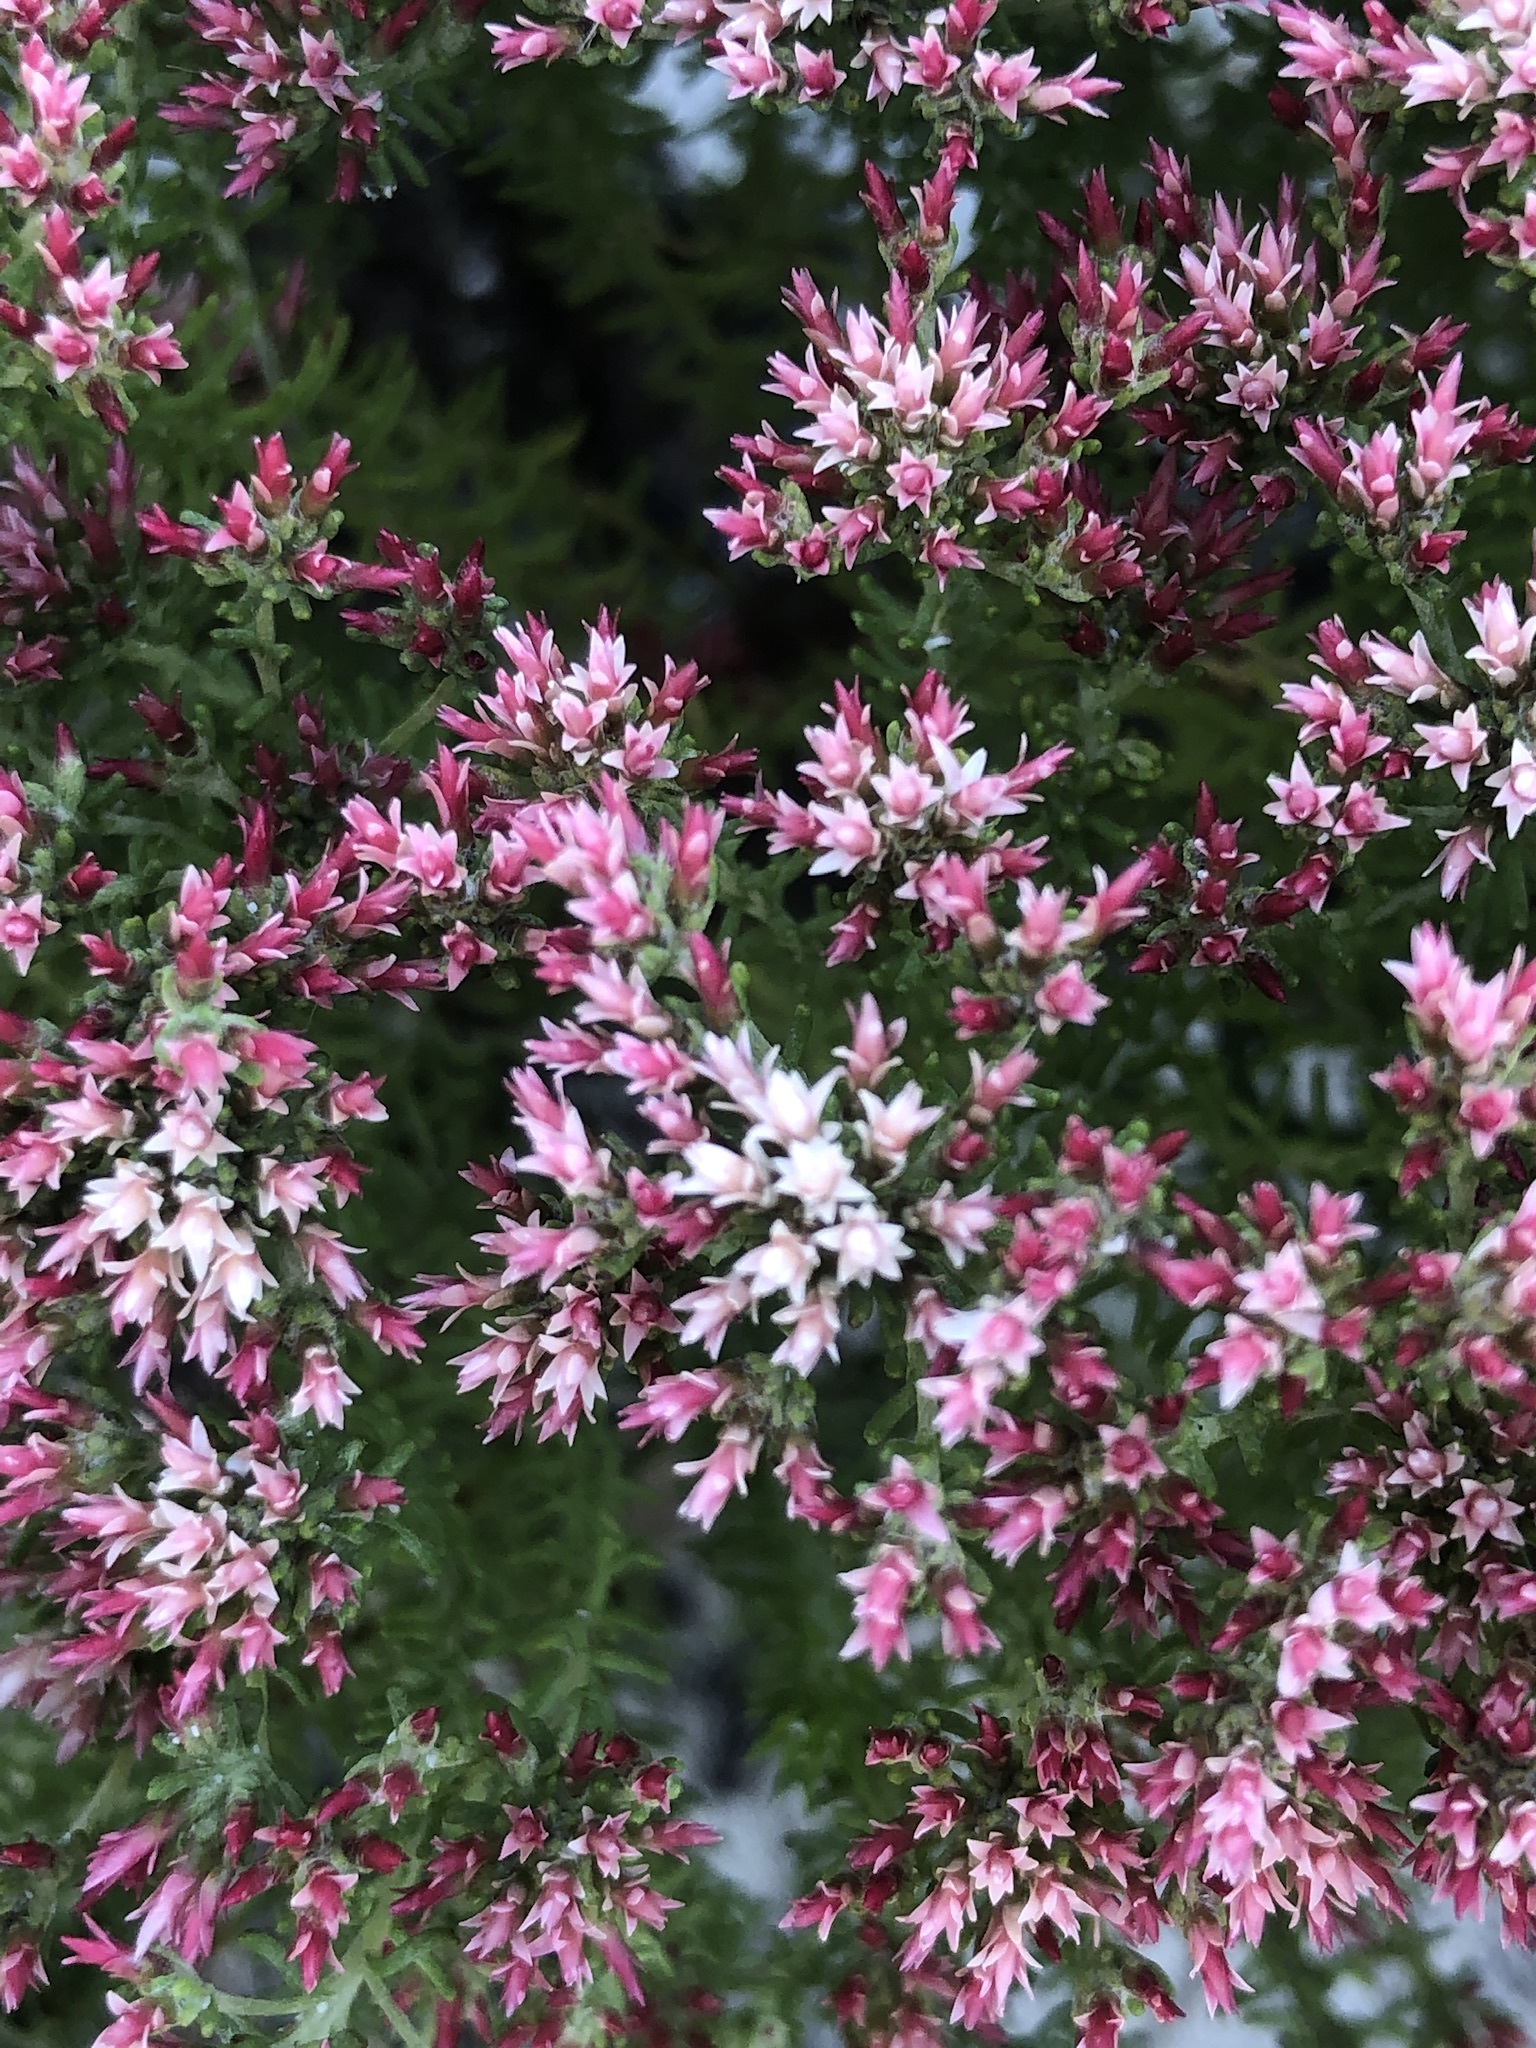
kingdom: Plantae
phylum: Tracheophyta
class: Magnoliopsida
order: Asterales
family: Asteraceae
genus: Helichrysum
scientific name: Helichrysum niveum
